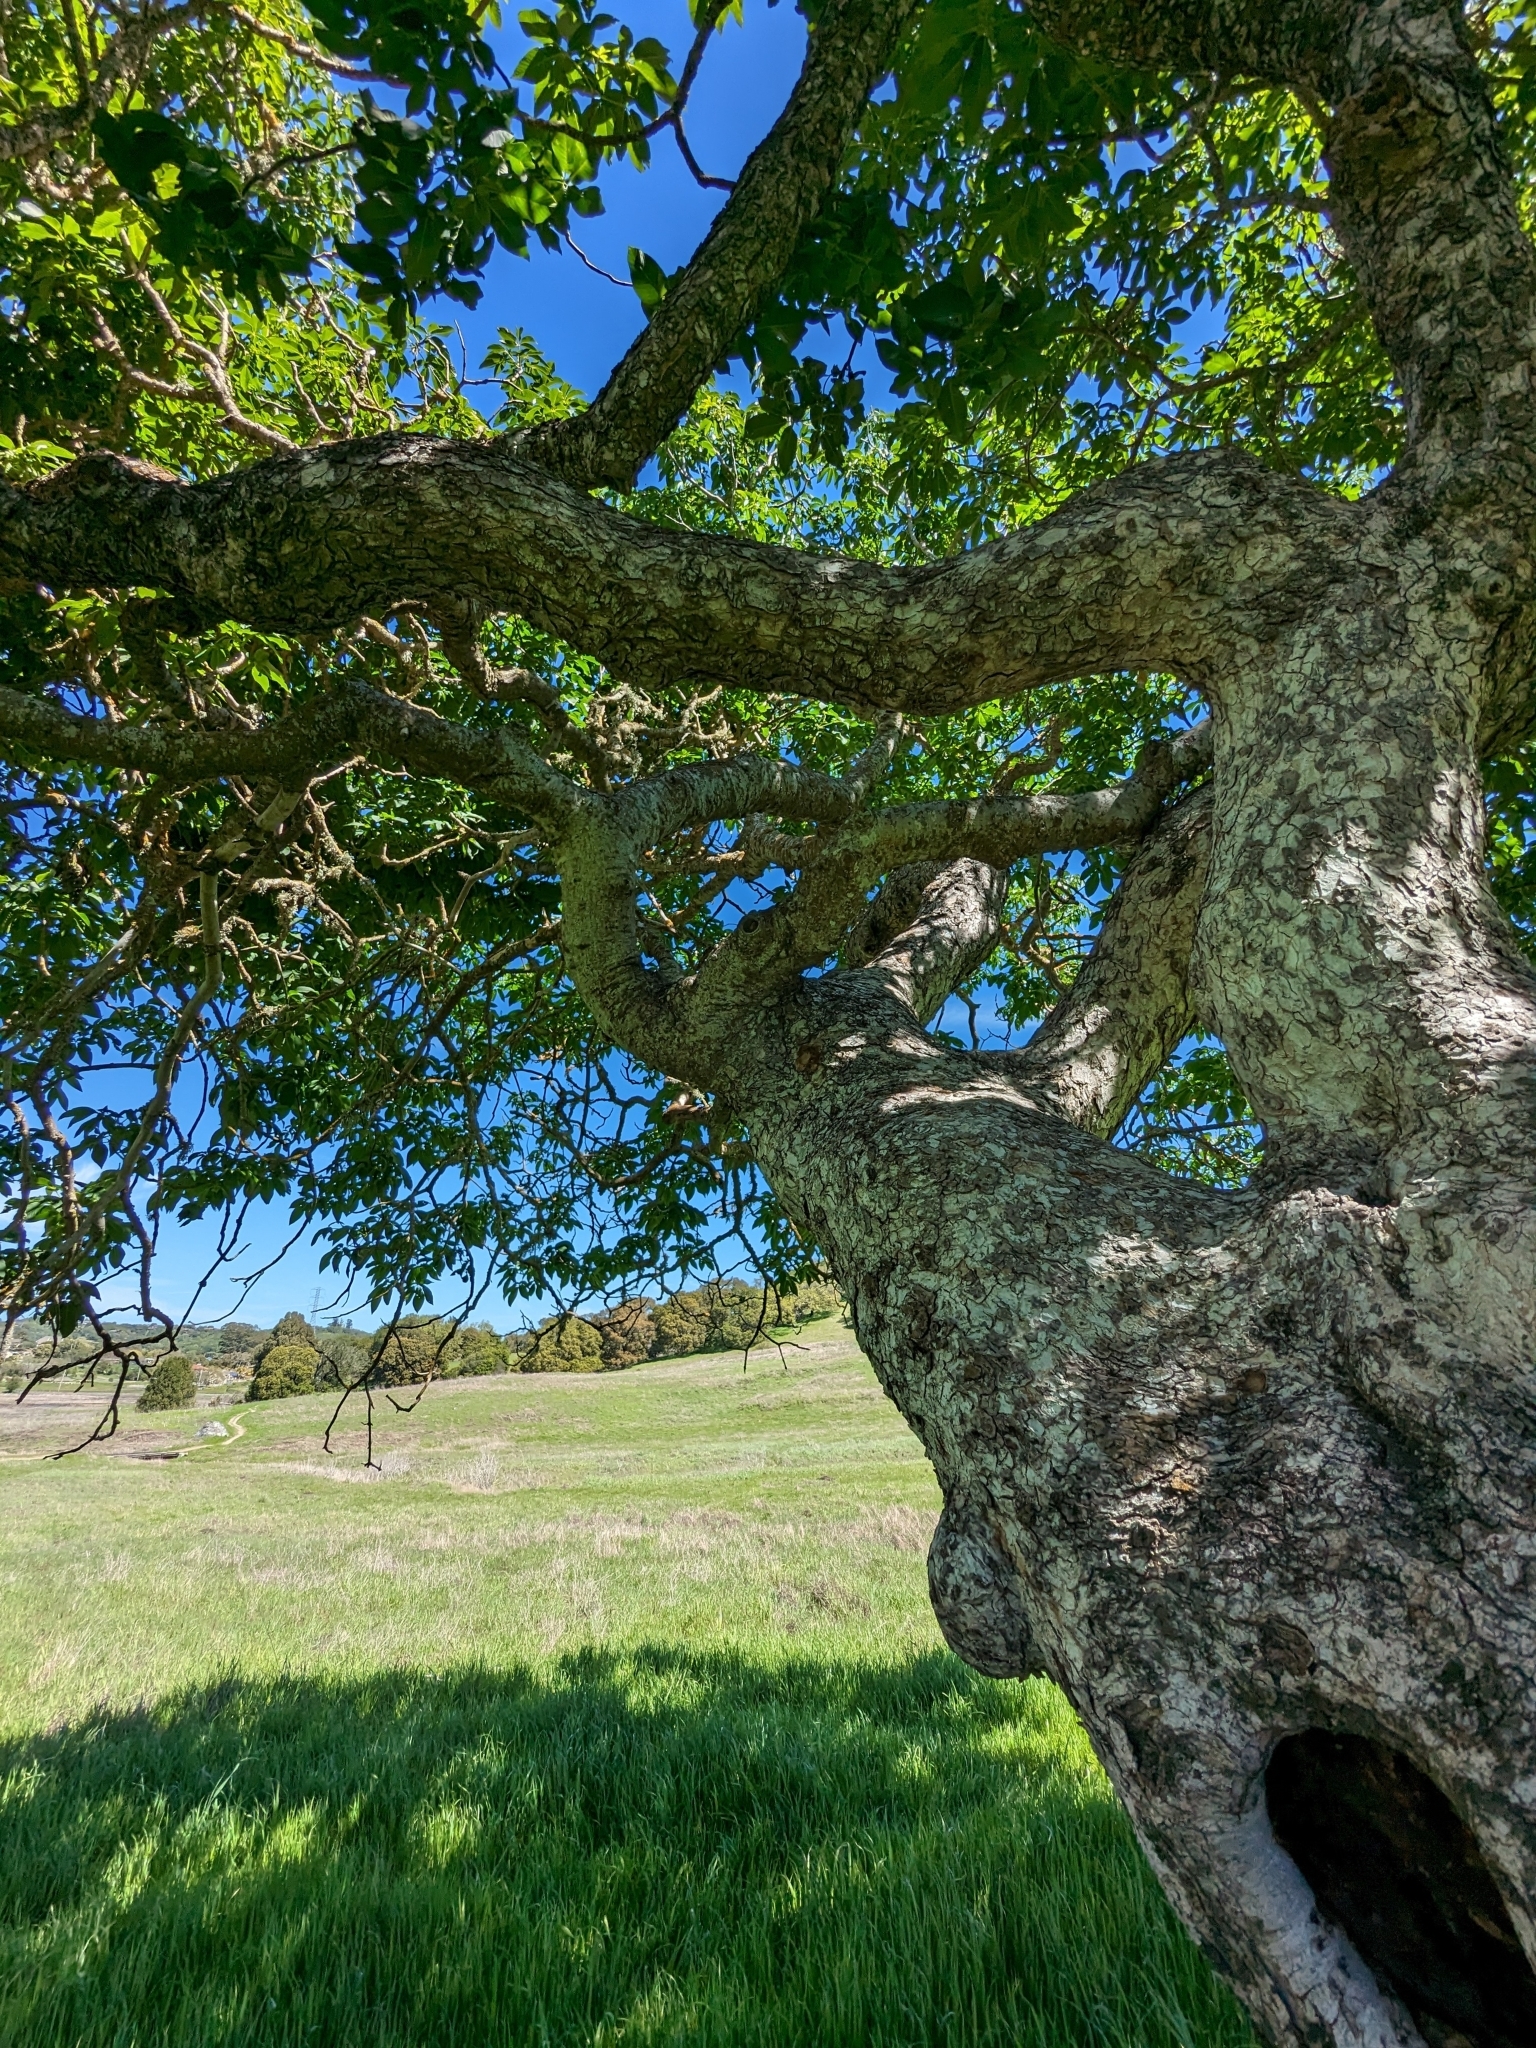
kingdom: Plantae
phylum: Tracheophyta
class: Magnoliopsida
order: Sapindales
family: Sapindaceae
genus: Aesculus
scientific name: Aesculus californica
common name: California buckeye
